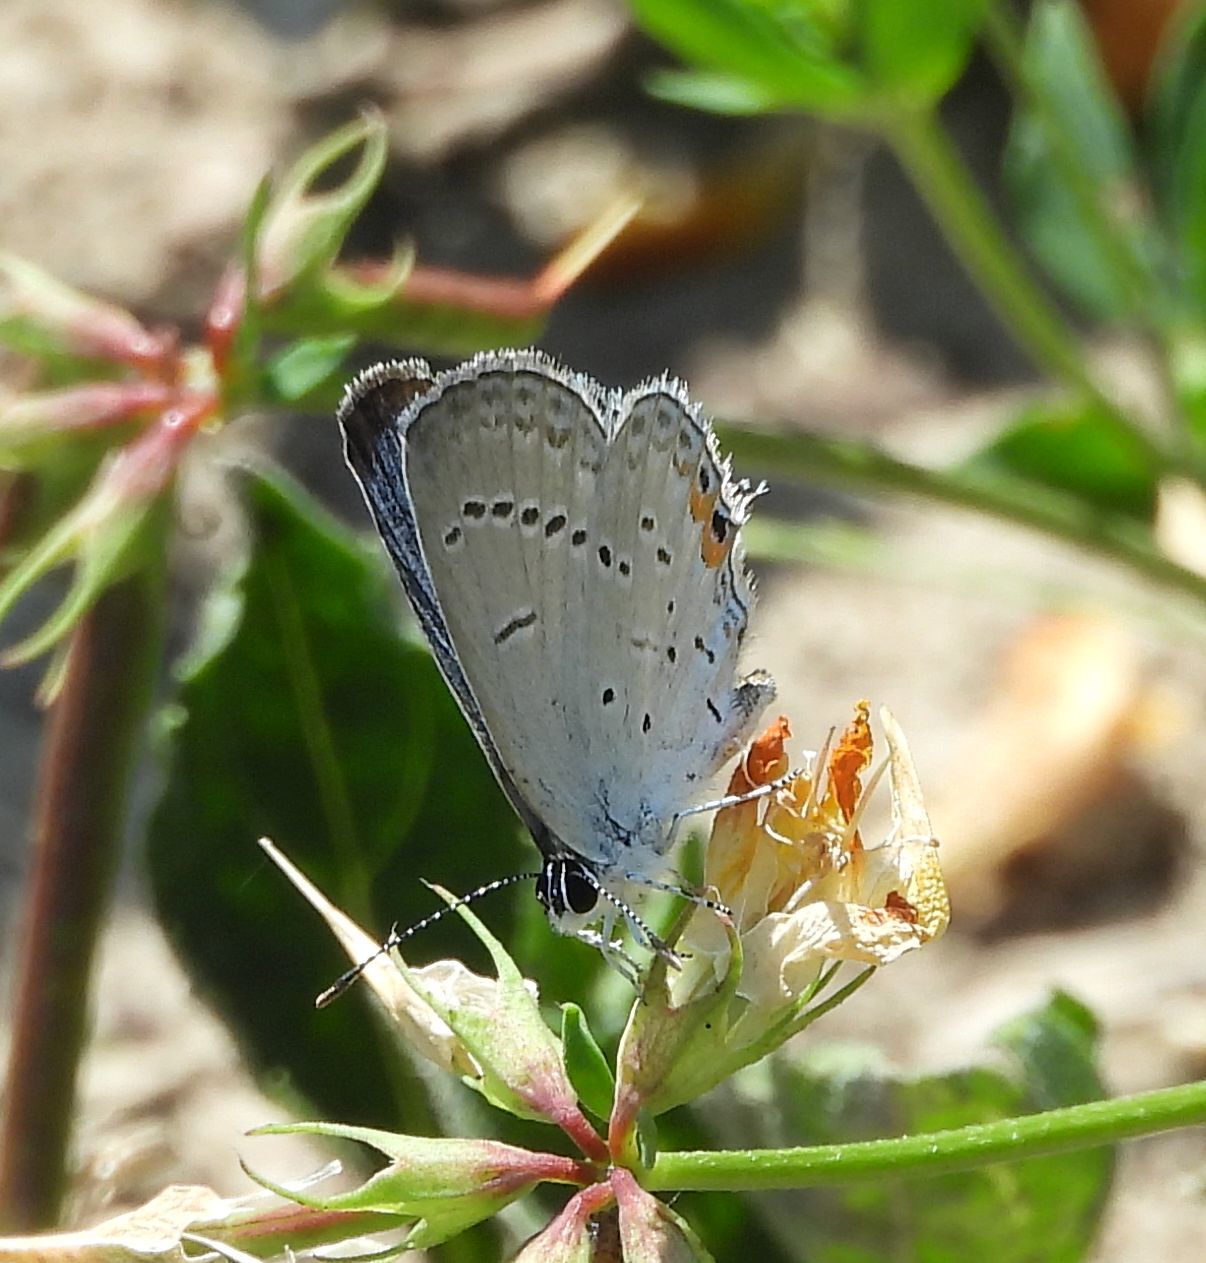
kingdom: Animalia
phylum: Arthropoda
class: Insecta
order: Lepidoptera
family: Lycaenidae
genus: Elkalyce
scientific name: Elkalyce comyntas
